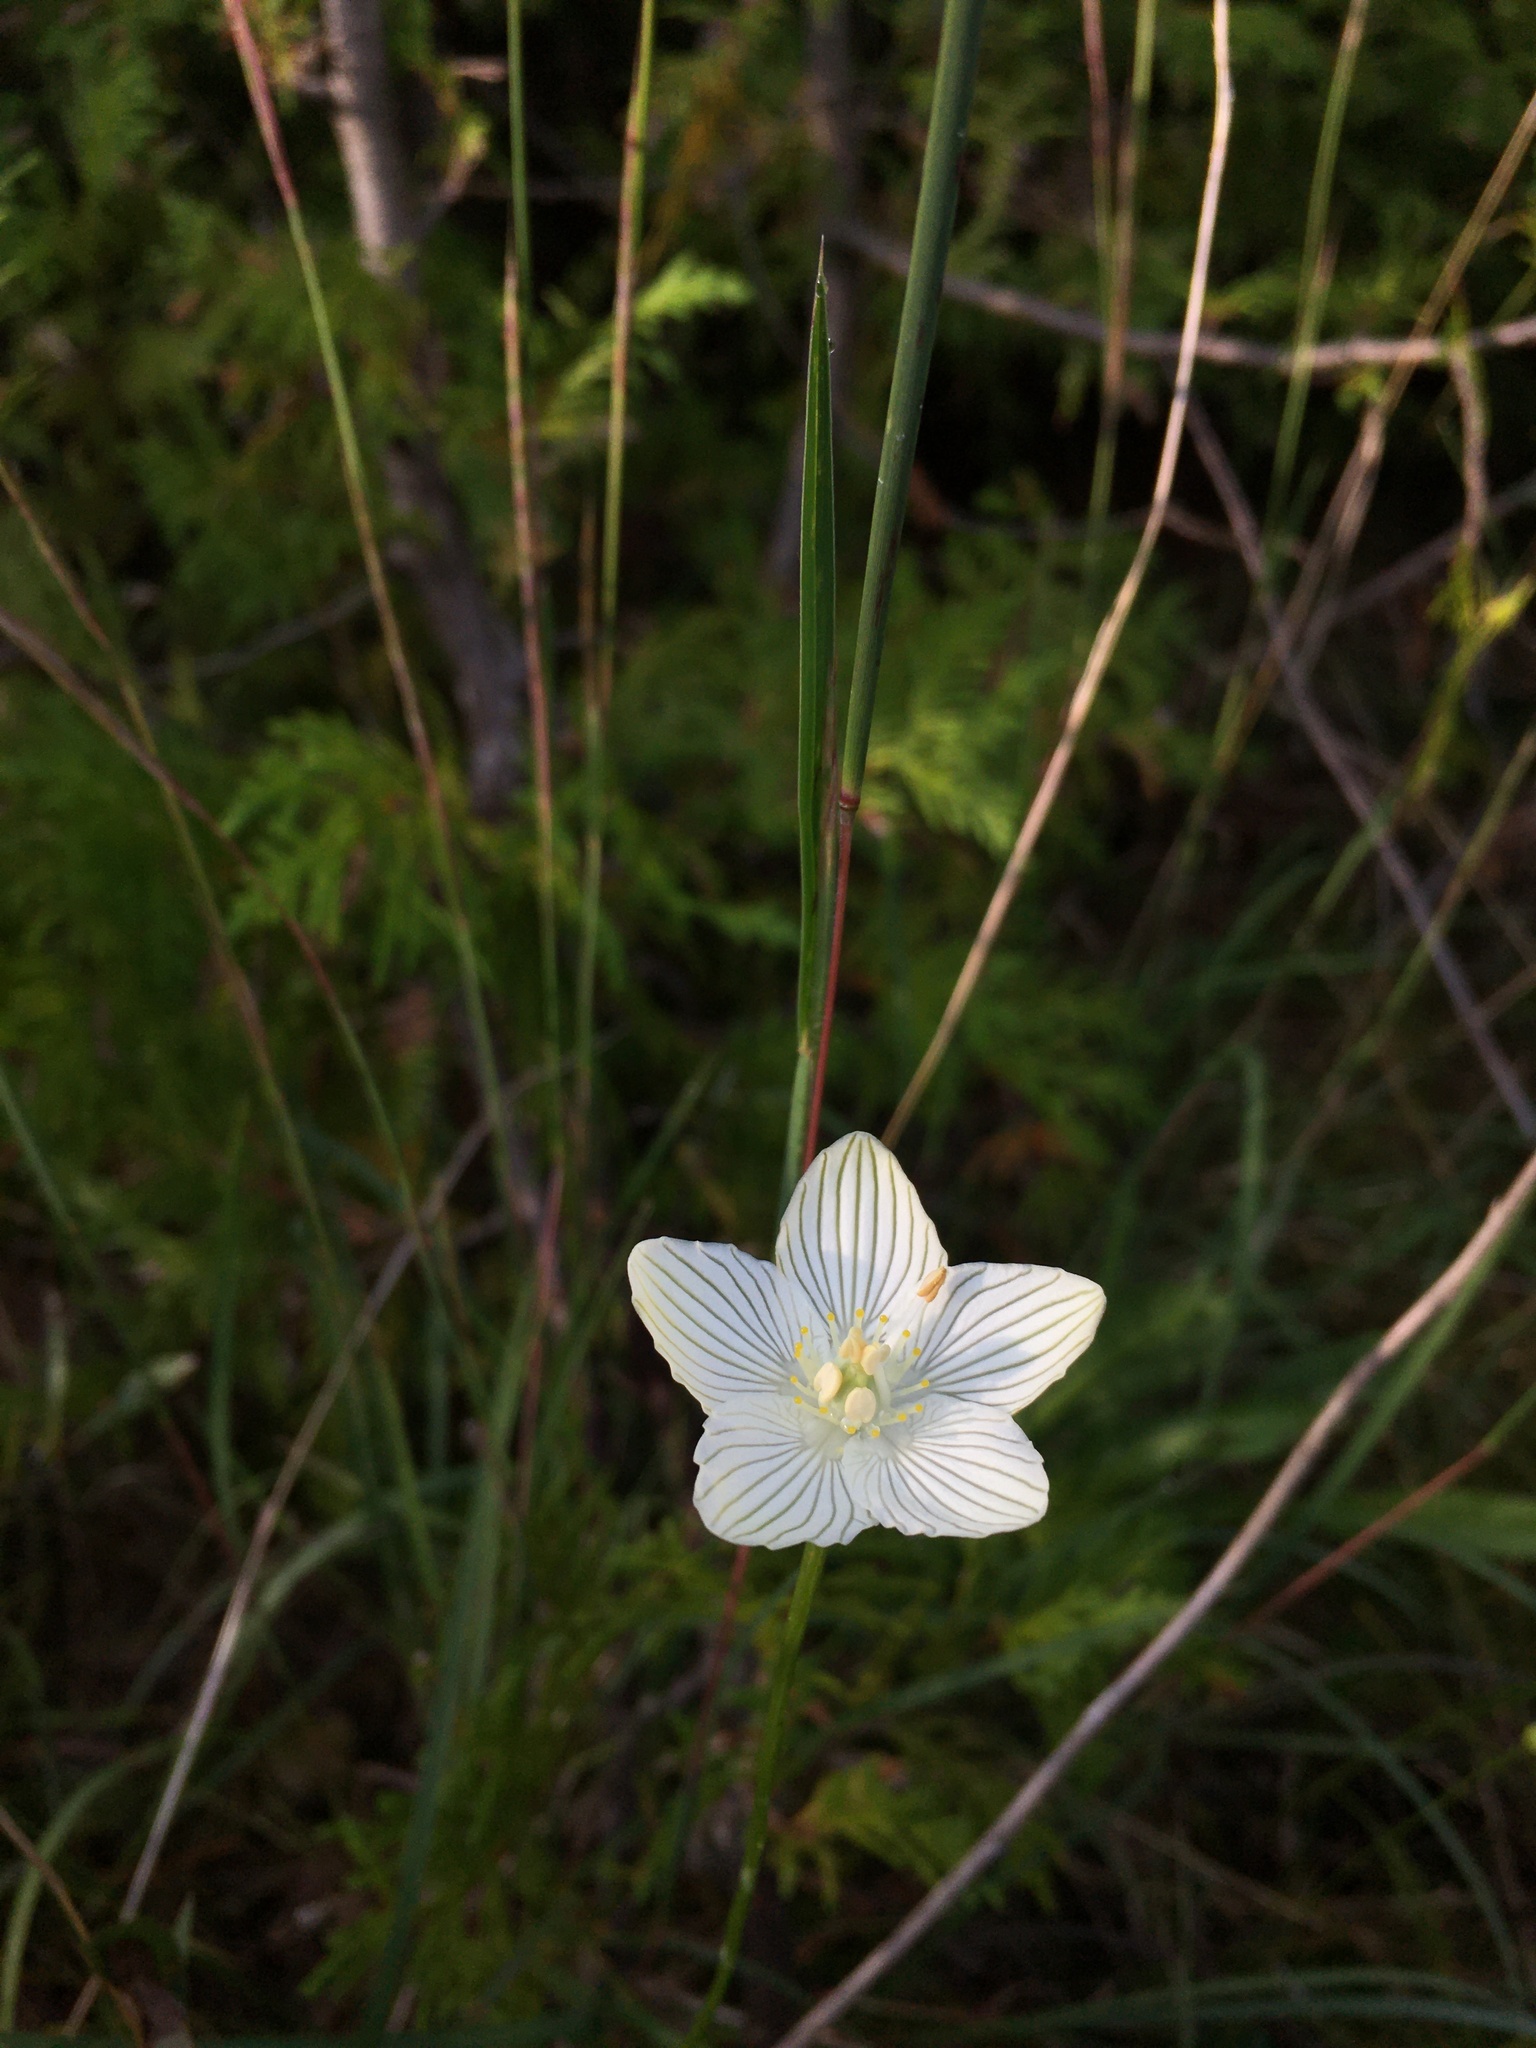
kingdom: Plantae
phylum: Tracheophyta
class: Magnoliopsida
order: Celastrales
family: Parnassiaceae
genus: Parnassia
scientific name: Parnassia glauca
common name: American grass-of-parnassus
